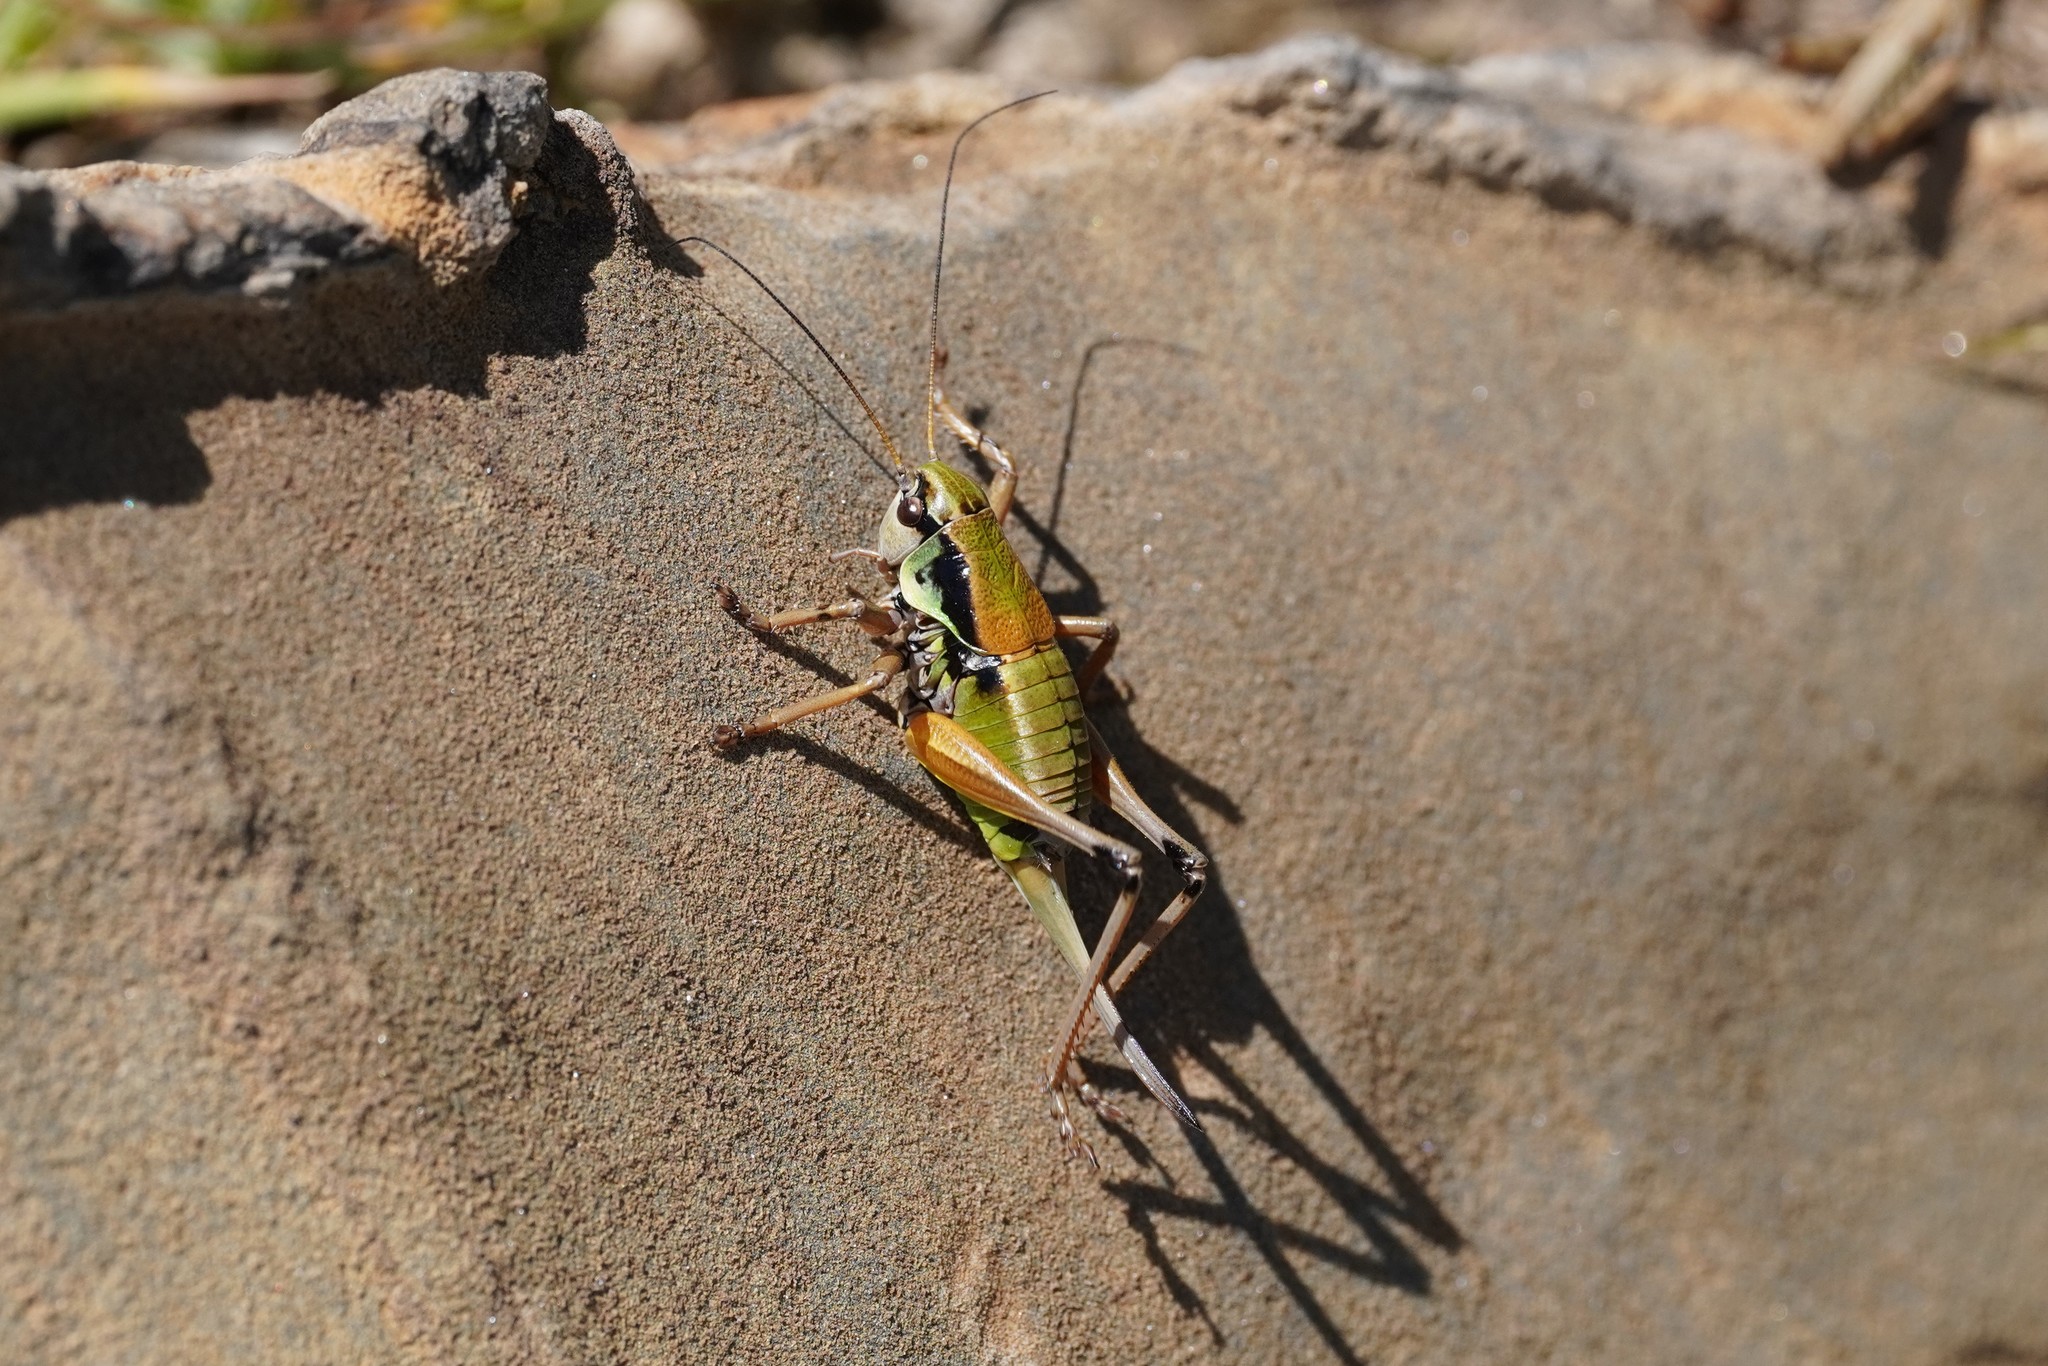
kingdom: Animalia
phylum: Arthropoda
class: Insecta
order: Orthoptera
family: Tettigoniidae
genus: Anonconotus
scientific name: Anonconotus occidentalis
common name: Western alpine bush-cricket
